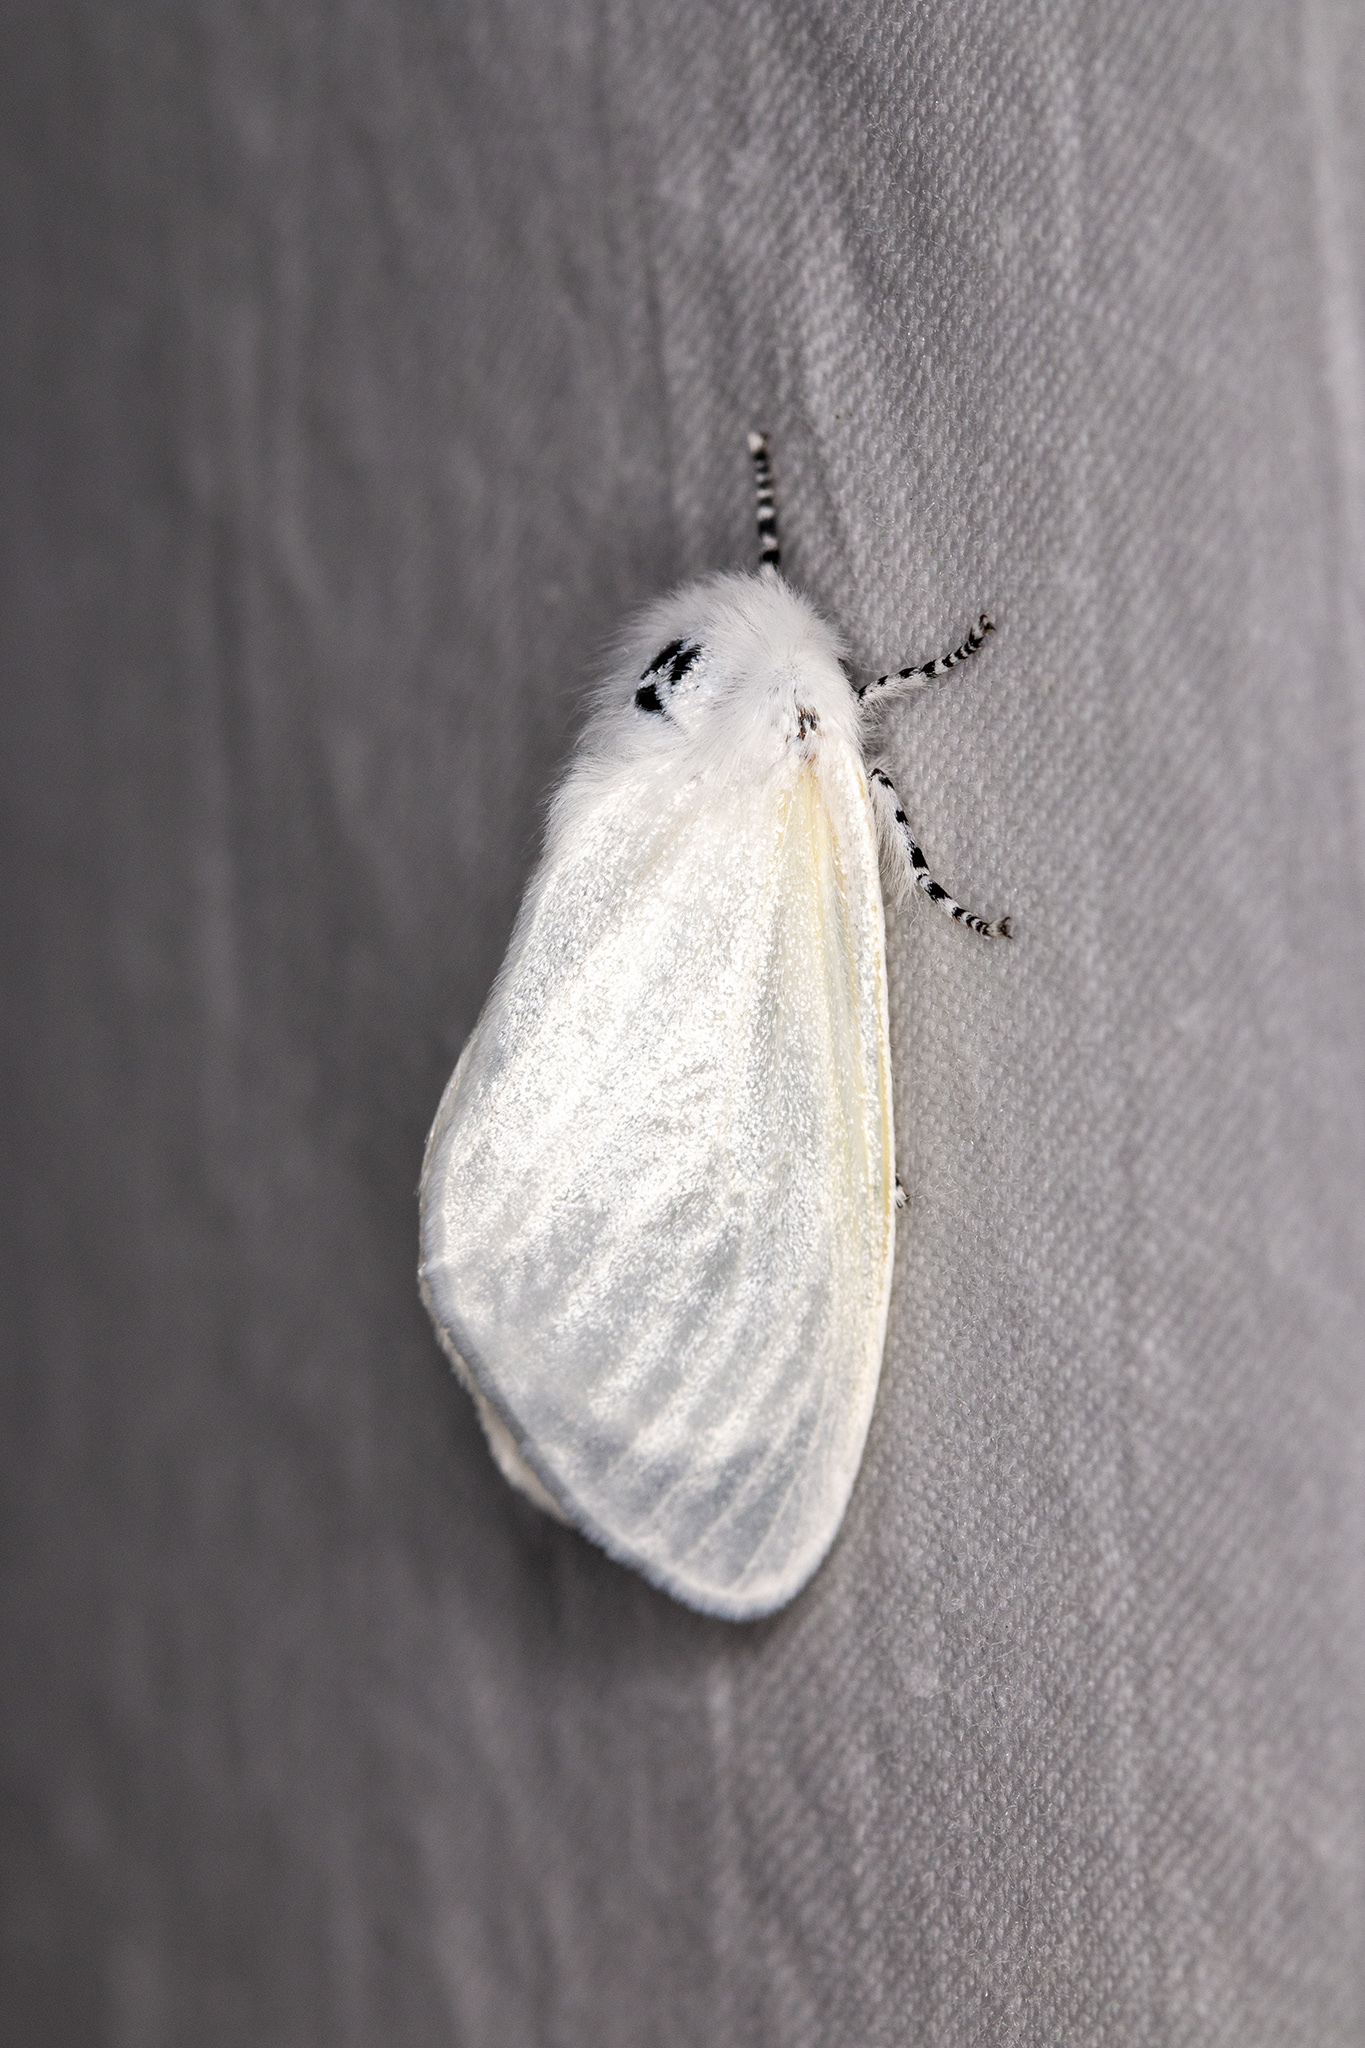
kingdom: Animalia
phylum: Arthropoda
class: Insecta
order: Lepidoptera
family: Erebidae
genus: Leucoma
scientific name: Leucoma salicis
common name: White satin moth
